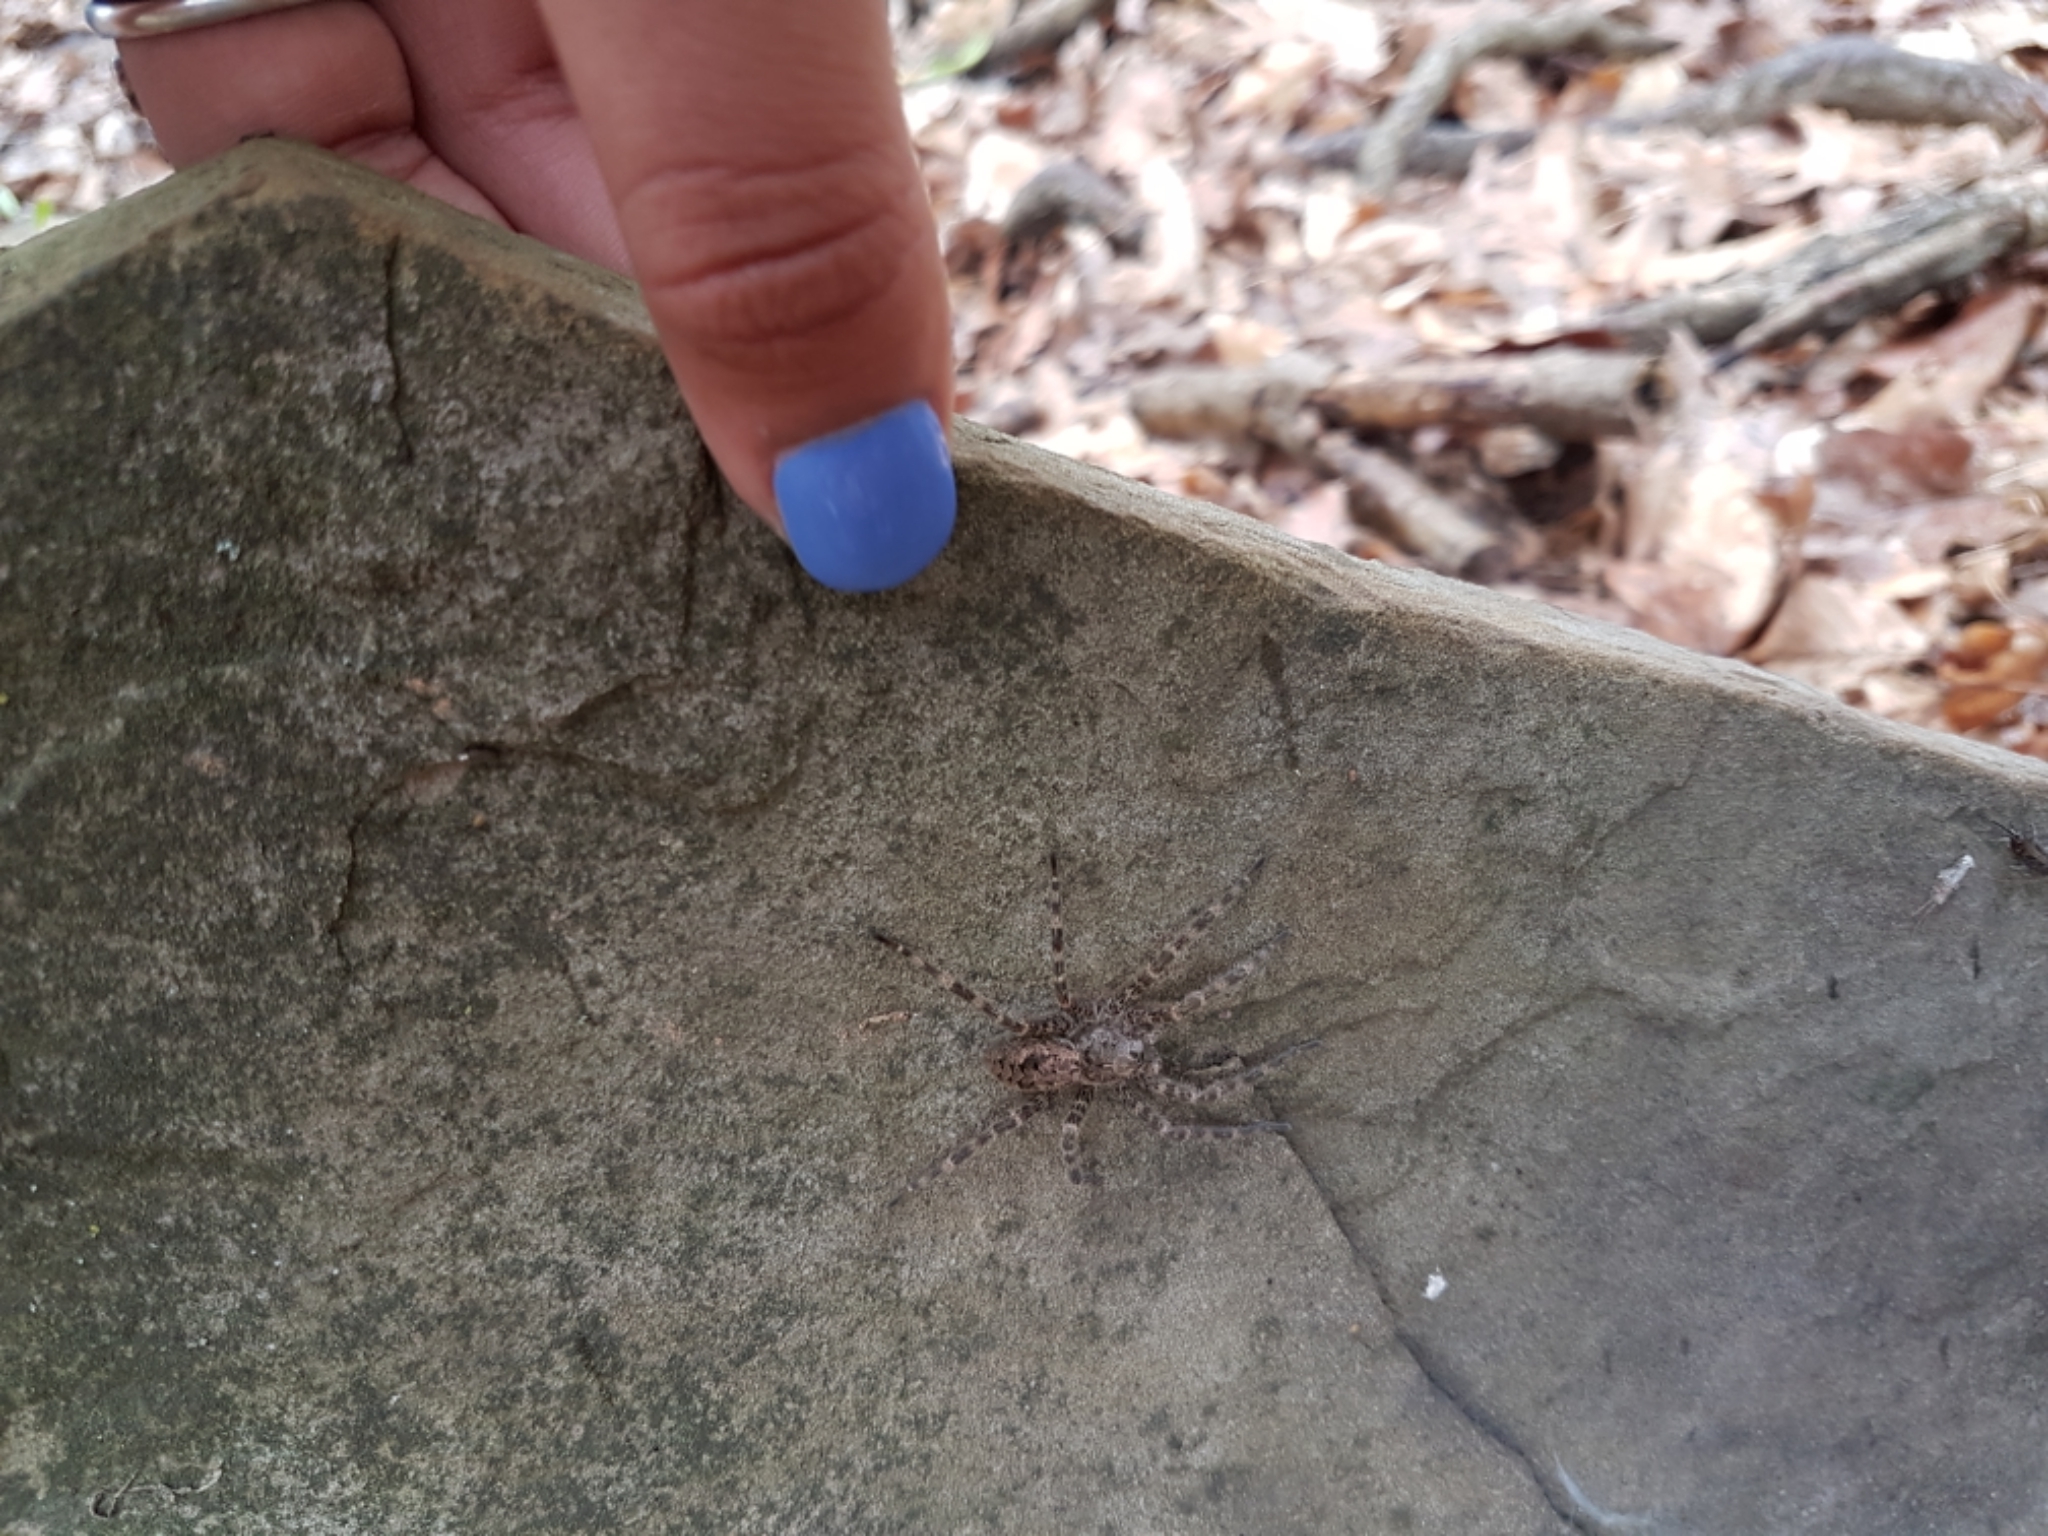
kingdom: Animalia
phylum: Arthropoda
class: Arachnida
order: Araneae
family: Pisauridae
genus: Dolomedes
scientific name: Dolomedes tenebrosus
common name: Dark fishing spider
